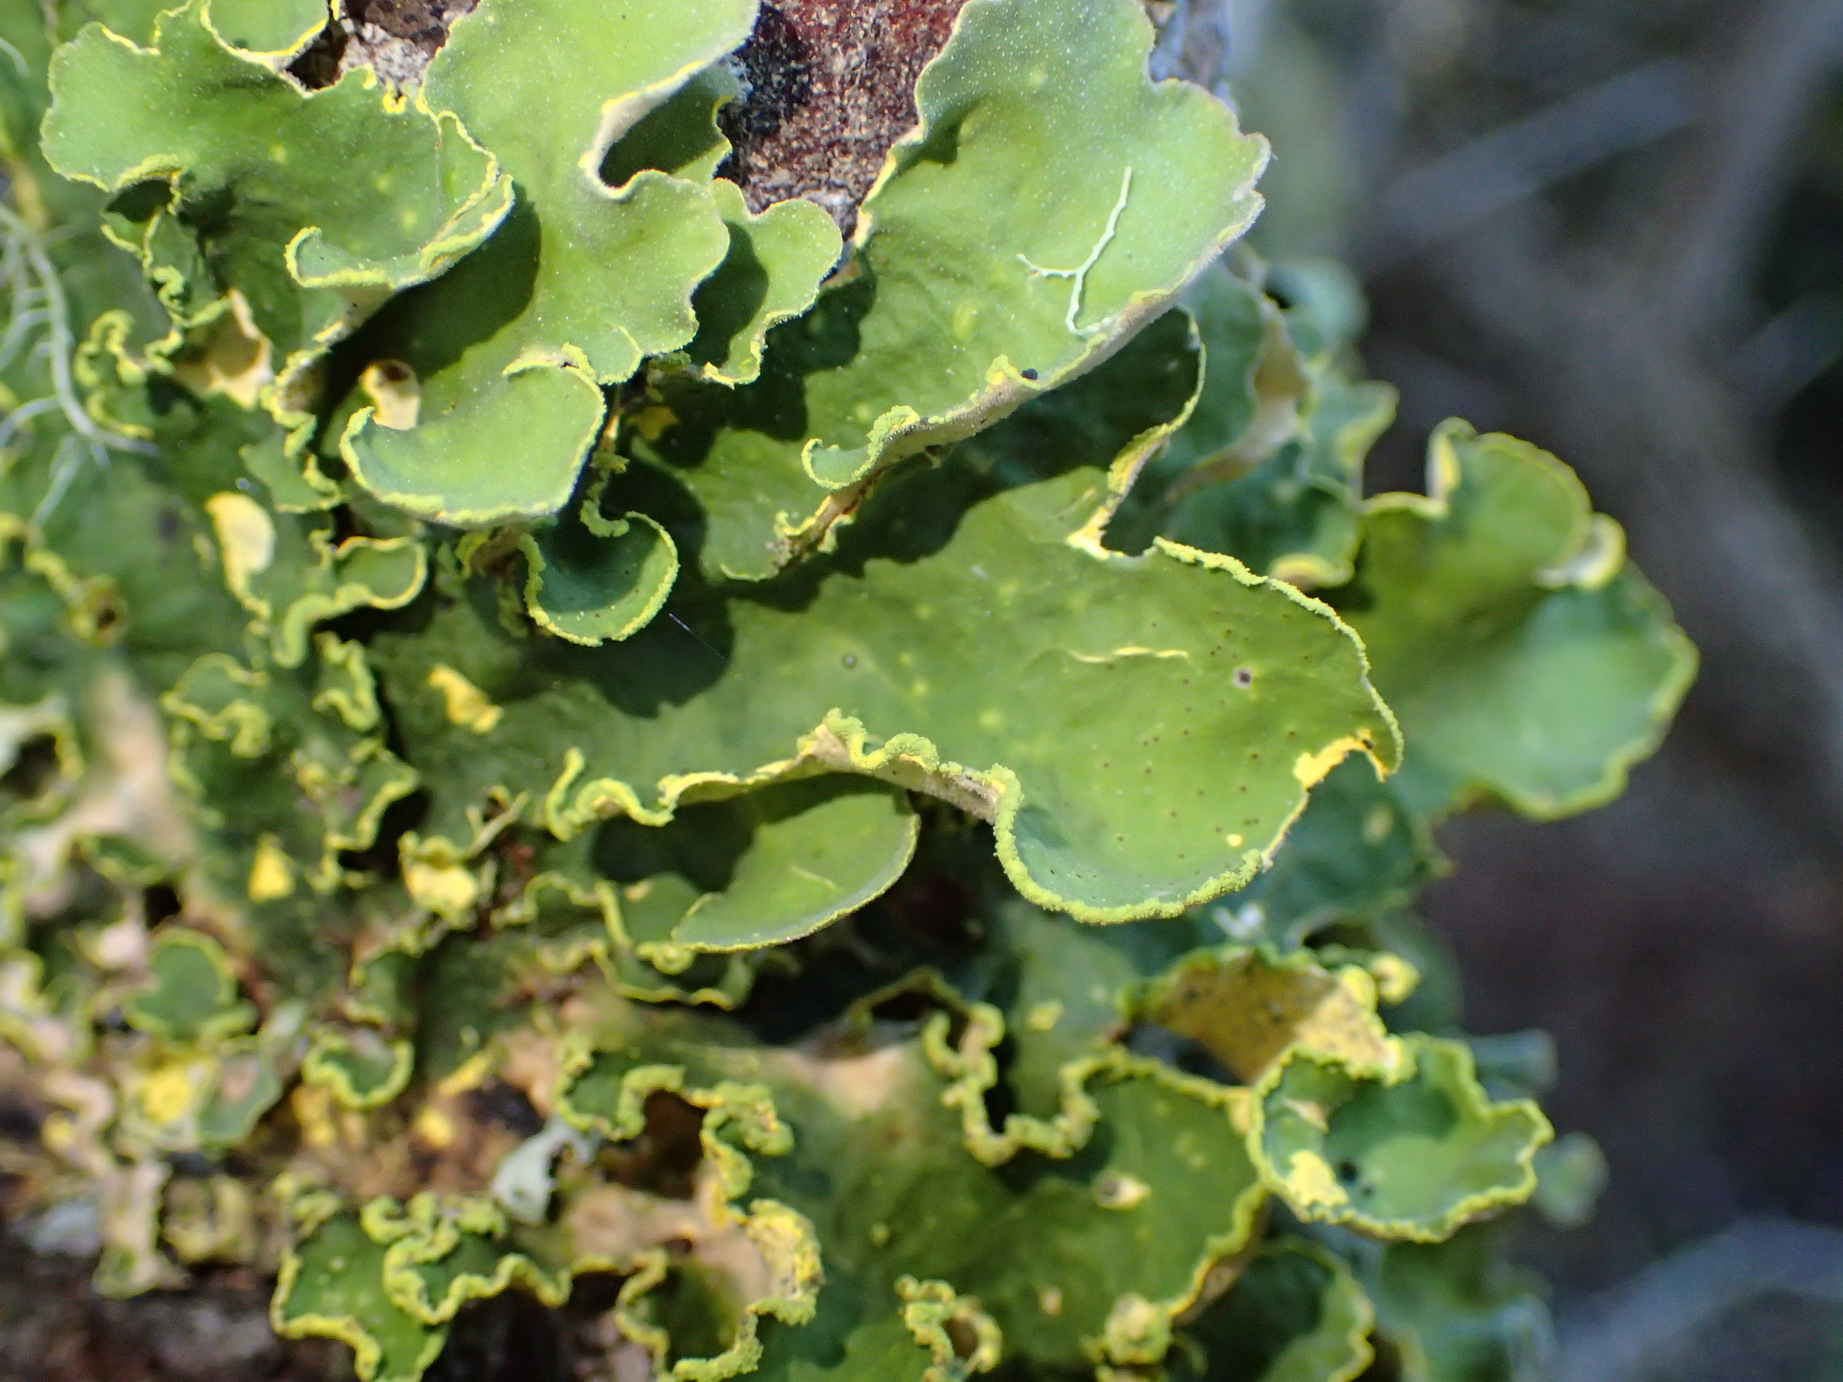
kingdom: Fungi
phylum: Ascomycota
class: Lecanoromycetes
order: Peltigerales
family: Lobariaceae
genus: Pseudocyphellaria
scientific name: Pseudocyphellaria aurata
